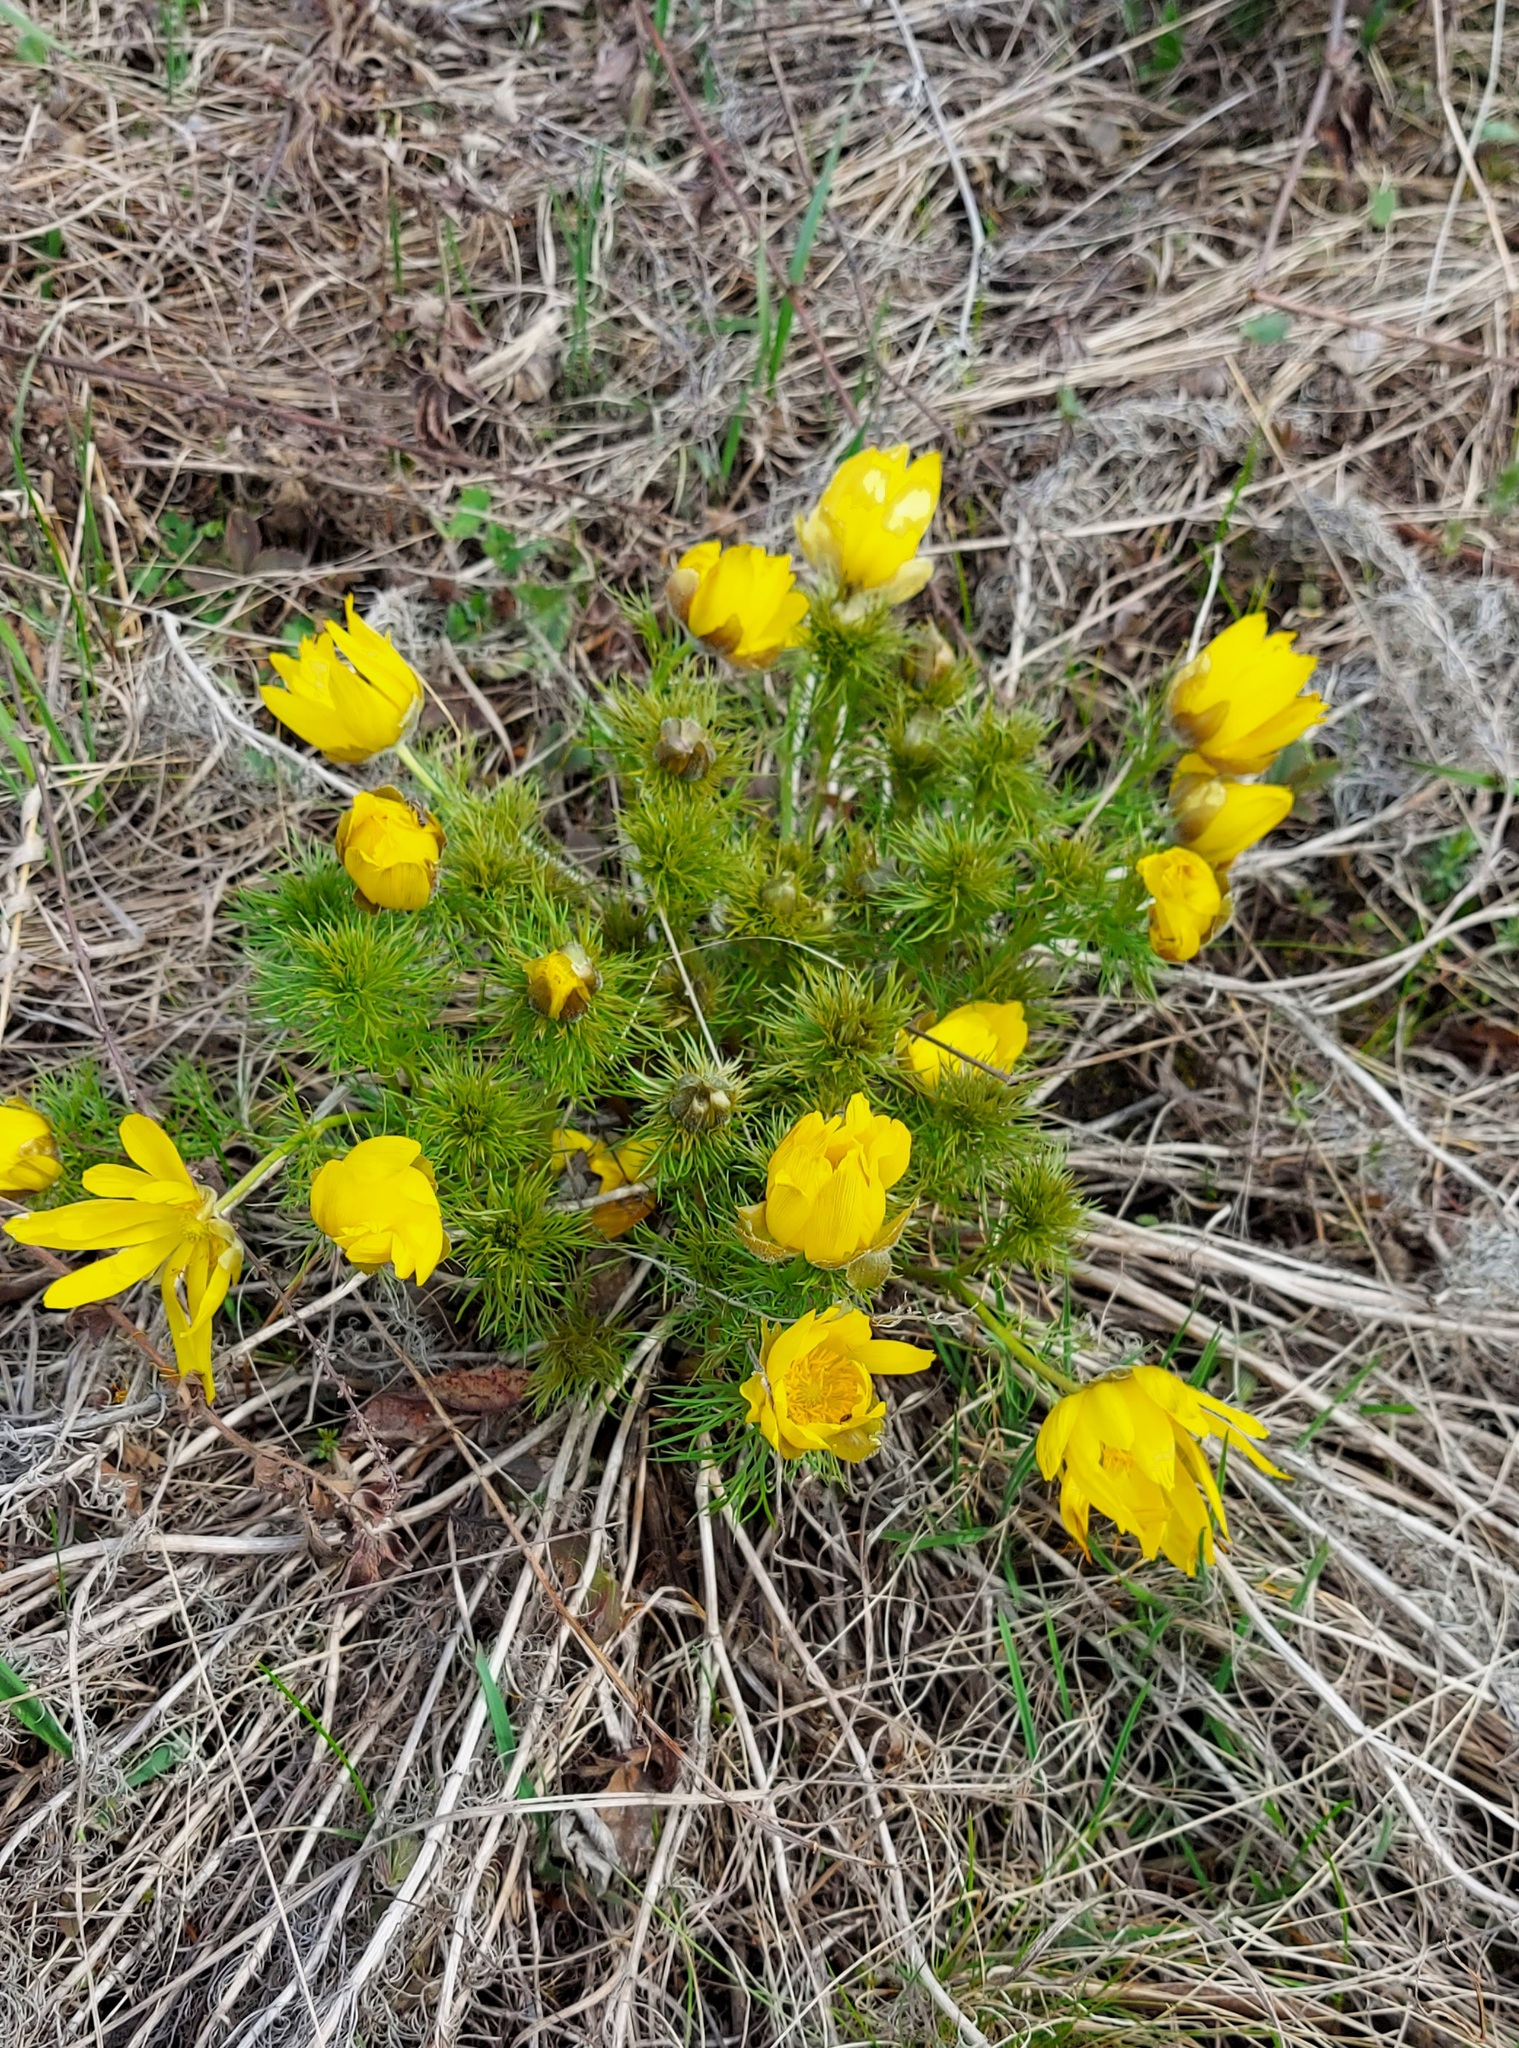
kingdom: Plantae
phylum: Tracheophyta
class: Magnoliopsida
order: Ranunculales
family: Ranunculaceae
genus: Adonis
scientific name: Adonis vernalis
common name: Yellow pheasants-eye
